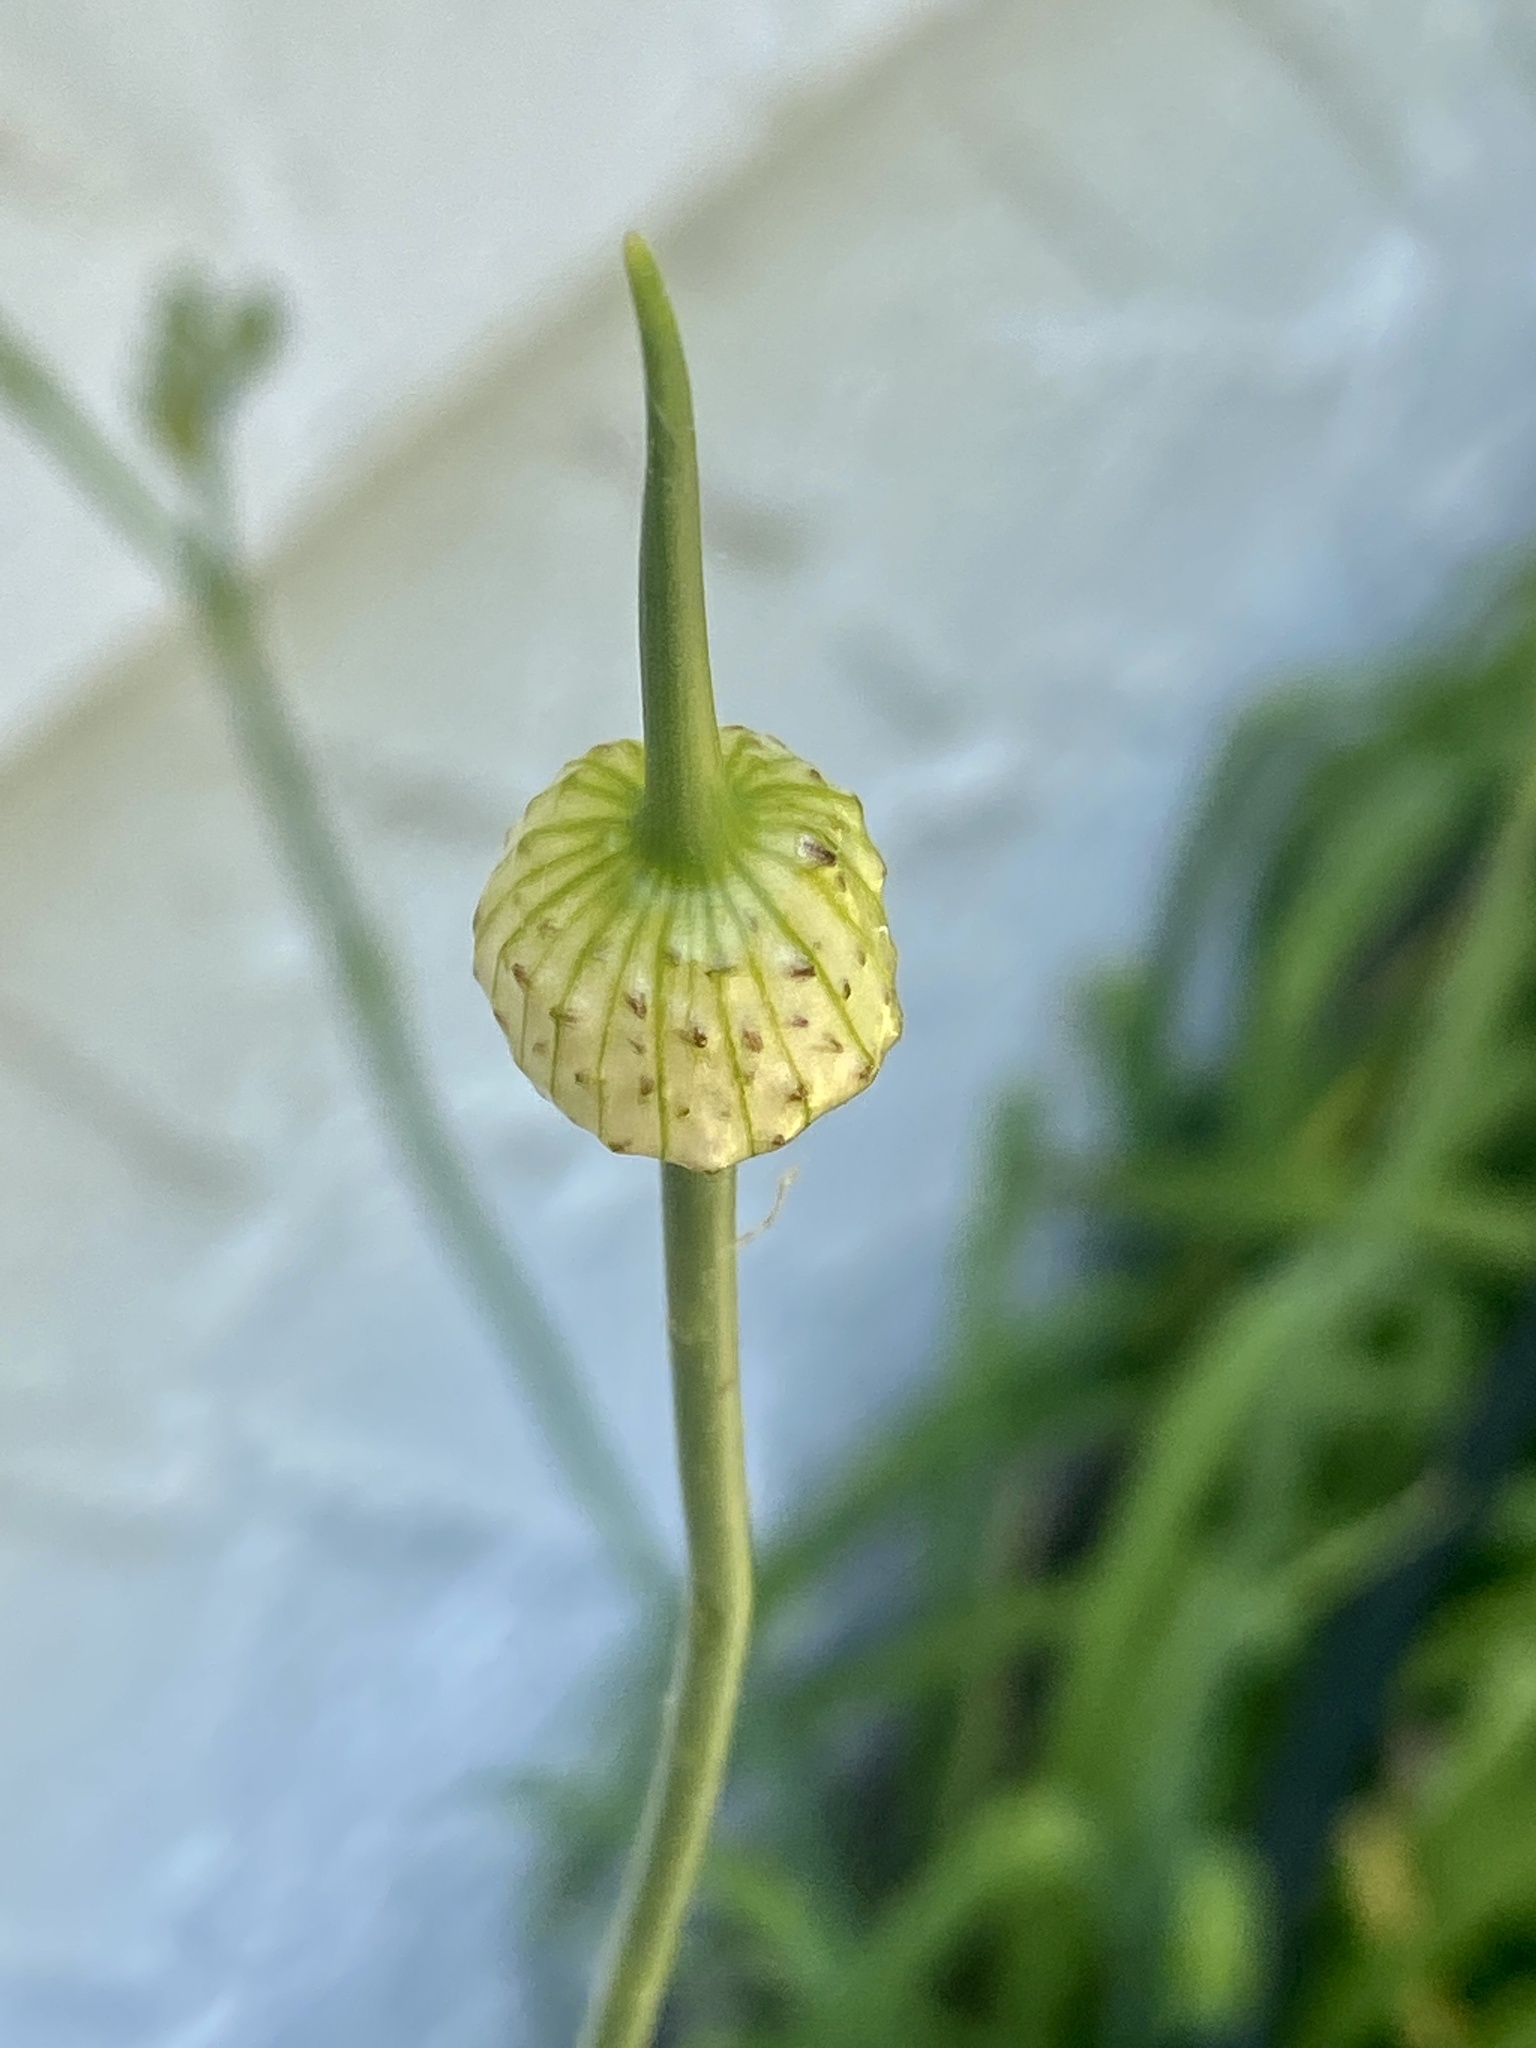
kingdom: Plantae
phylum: Tracheophyta
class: Liliopsida
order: Asparagales
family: Amaryllidaceae
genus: Allium
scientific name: Allium vineale
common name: Crow garlic
